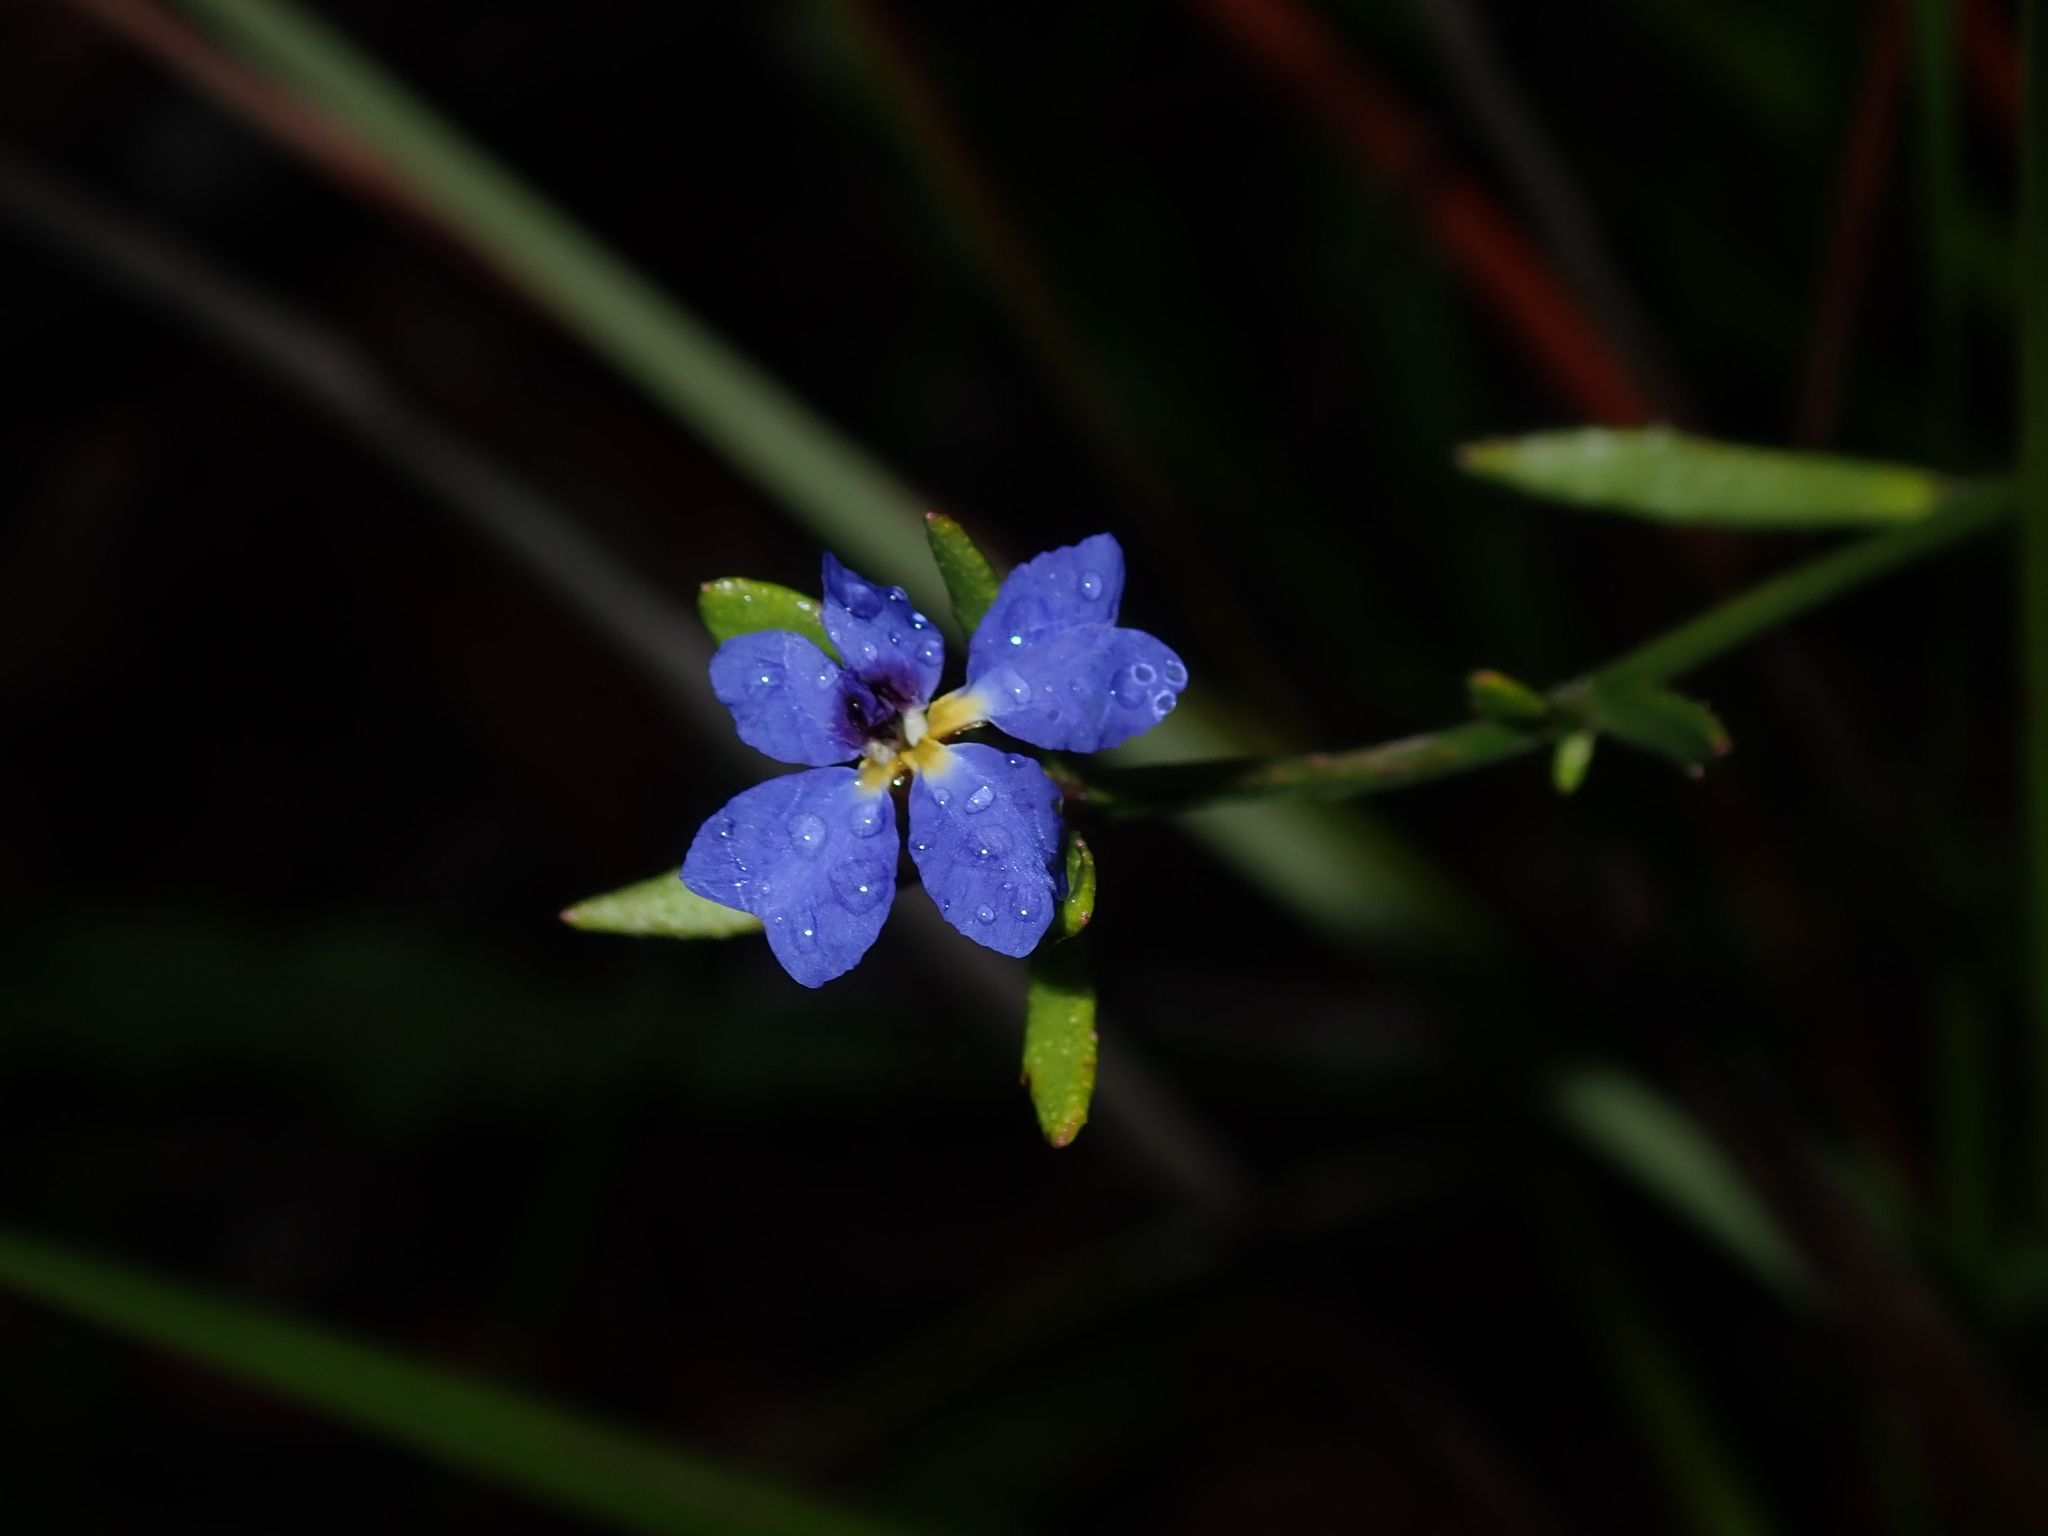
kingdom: Plantae
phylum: Tracheophyta
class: Magnoliopsida
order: Asterales
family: Goodeniaceae
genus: Dampiera
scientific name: Dampiera stricta
